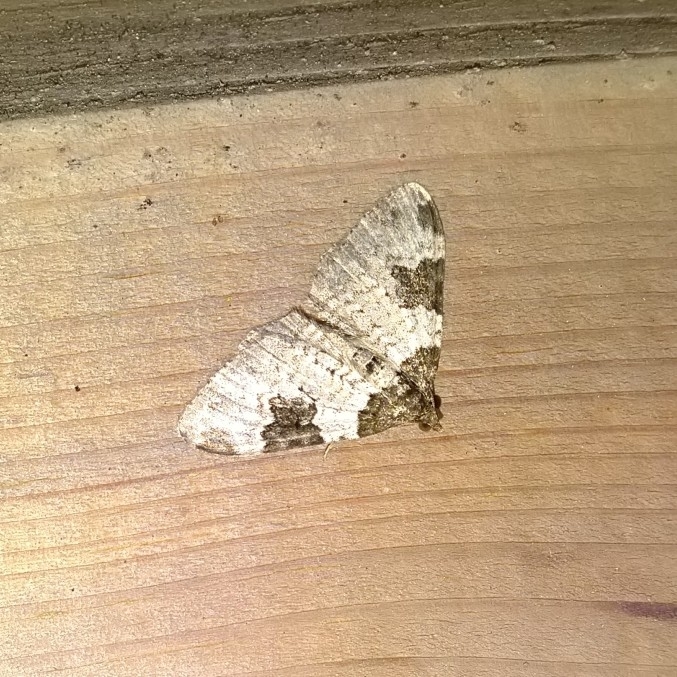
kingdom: Animalia
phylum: Arthropoda
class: Insecta
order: Lepidoptera
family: Geometridae
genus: Xanthorhoe
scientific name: Xanthorhoe fluctuata
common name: Garden carpet
